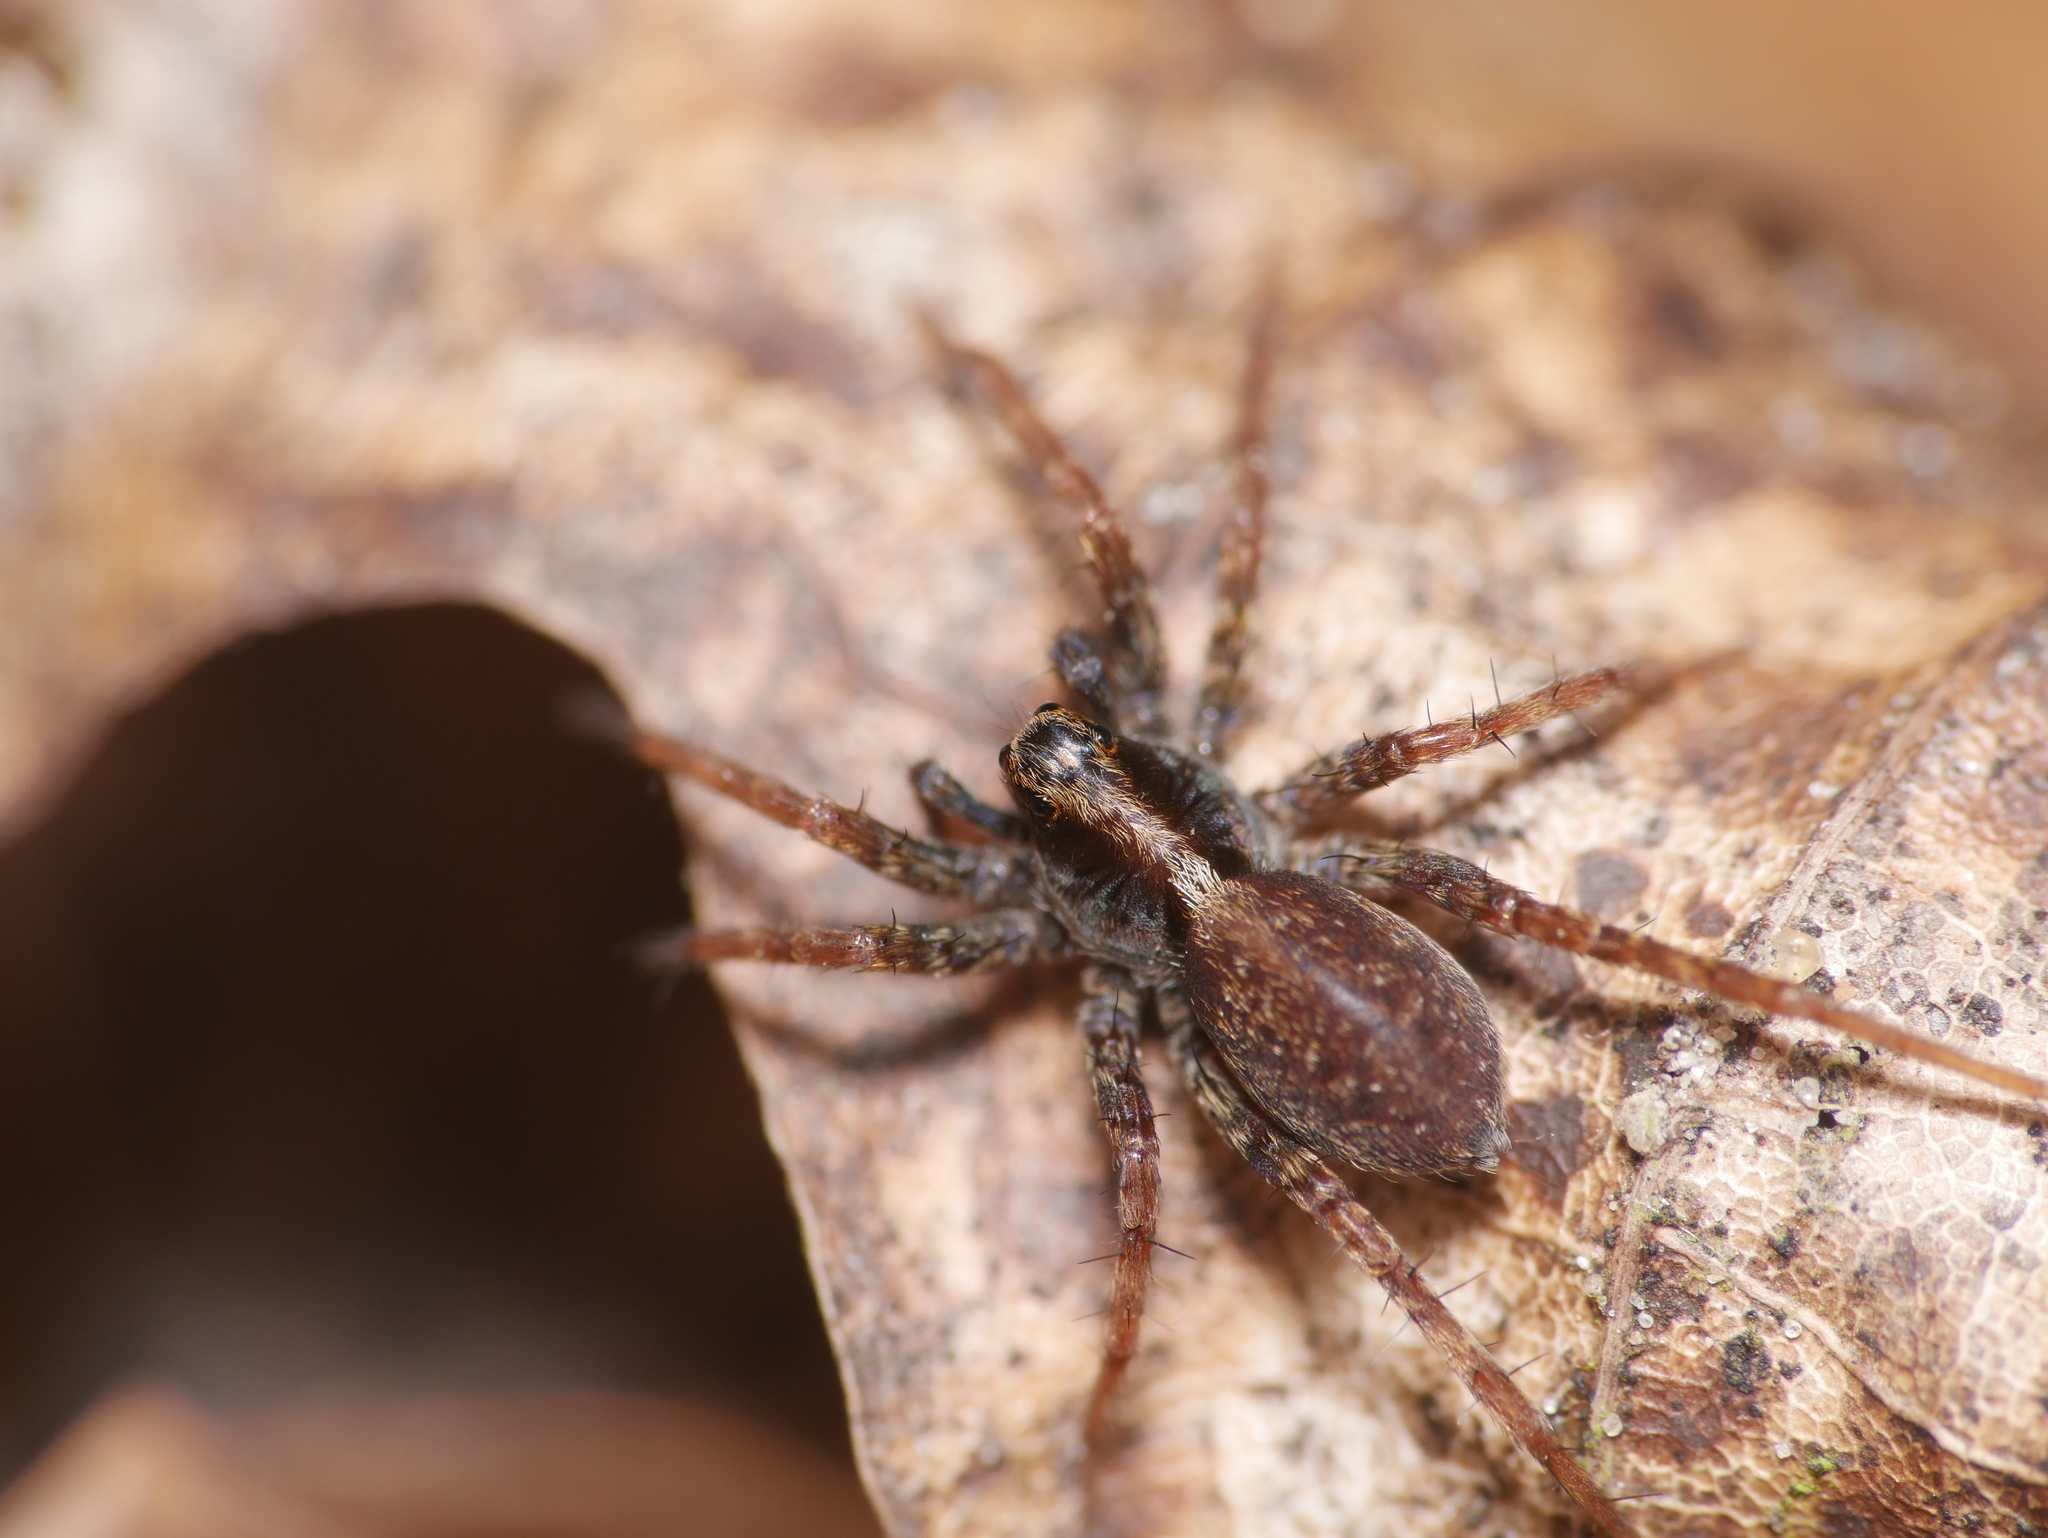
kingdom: Animalia
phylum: Arthropoda
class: Arachnida
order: Araneae
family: Lycosidae
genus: Pardosa
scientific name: Pardosa
